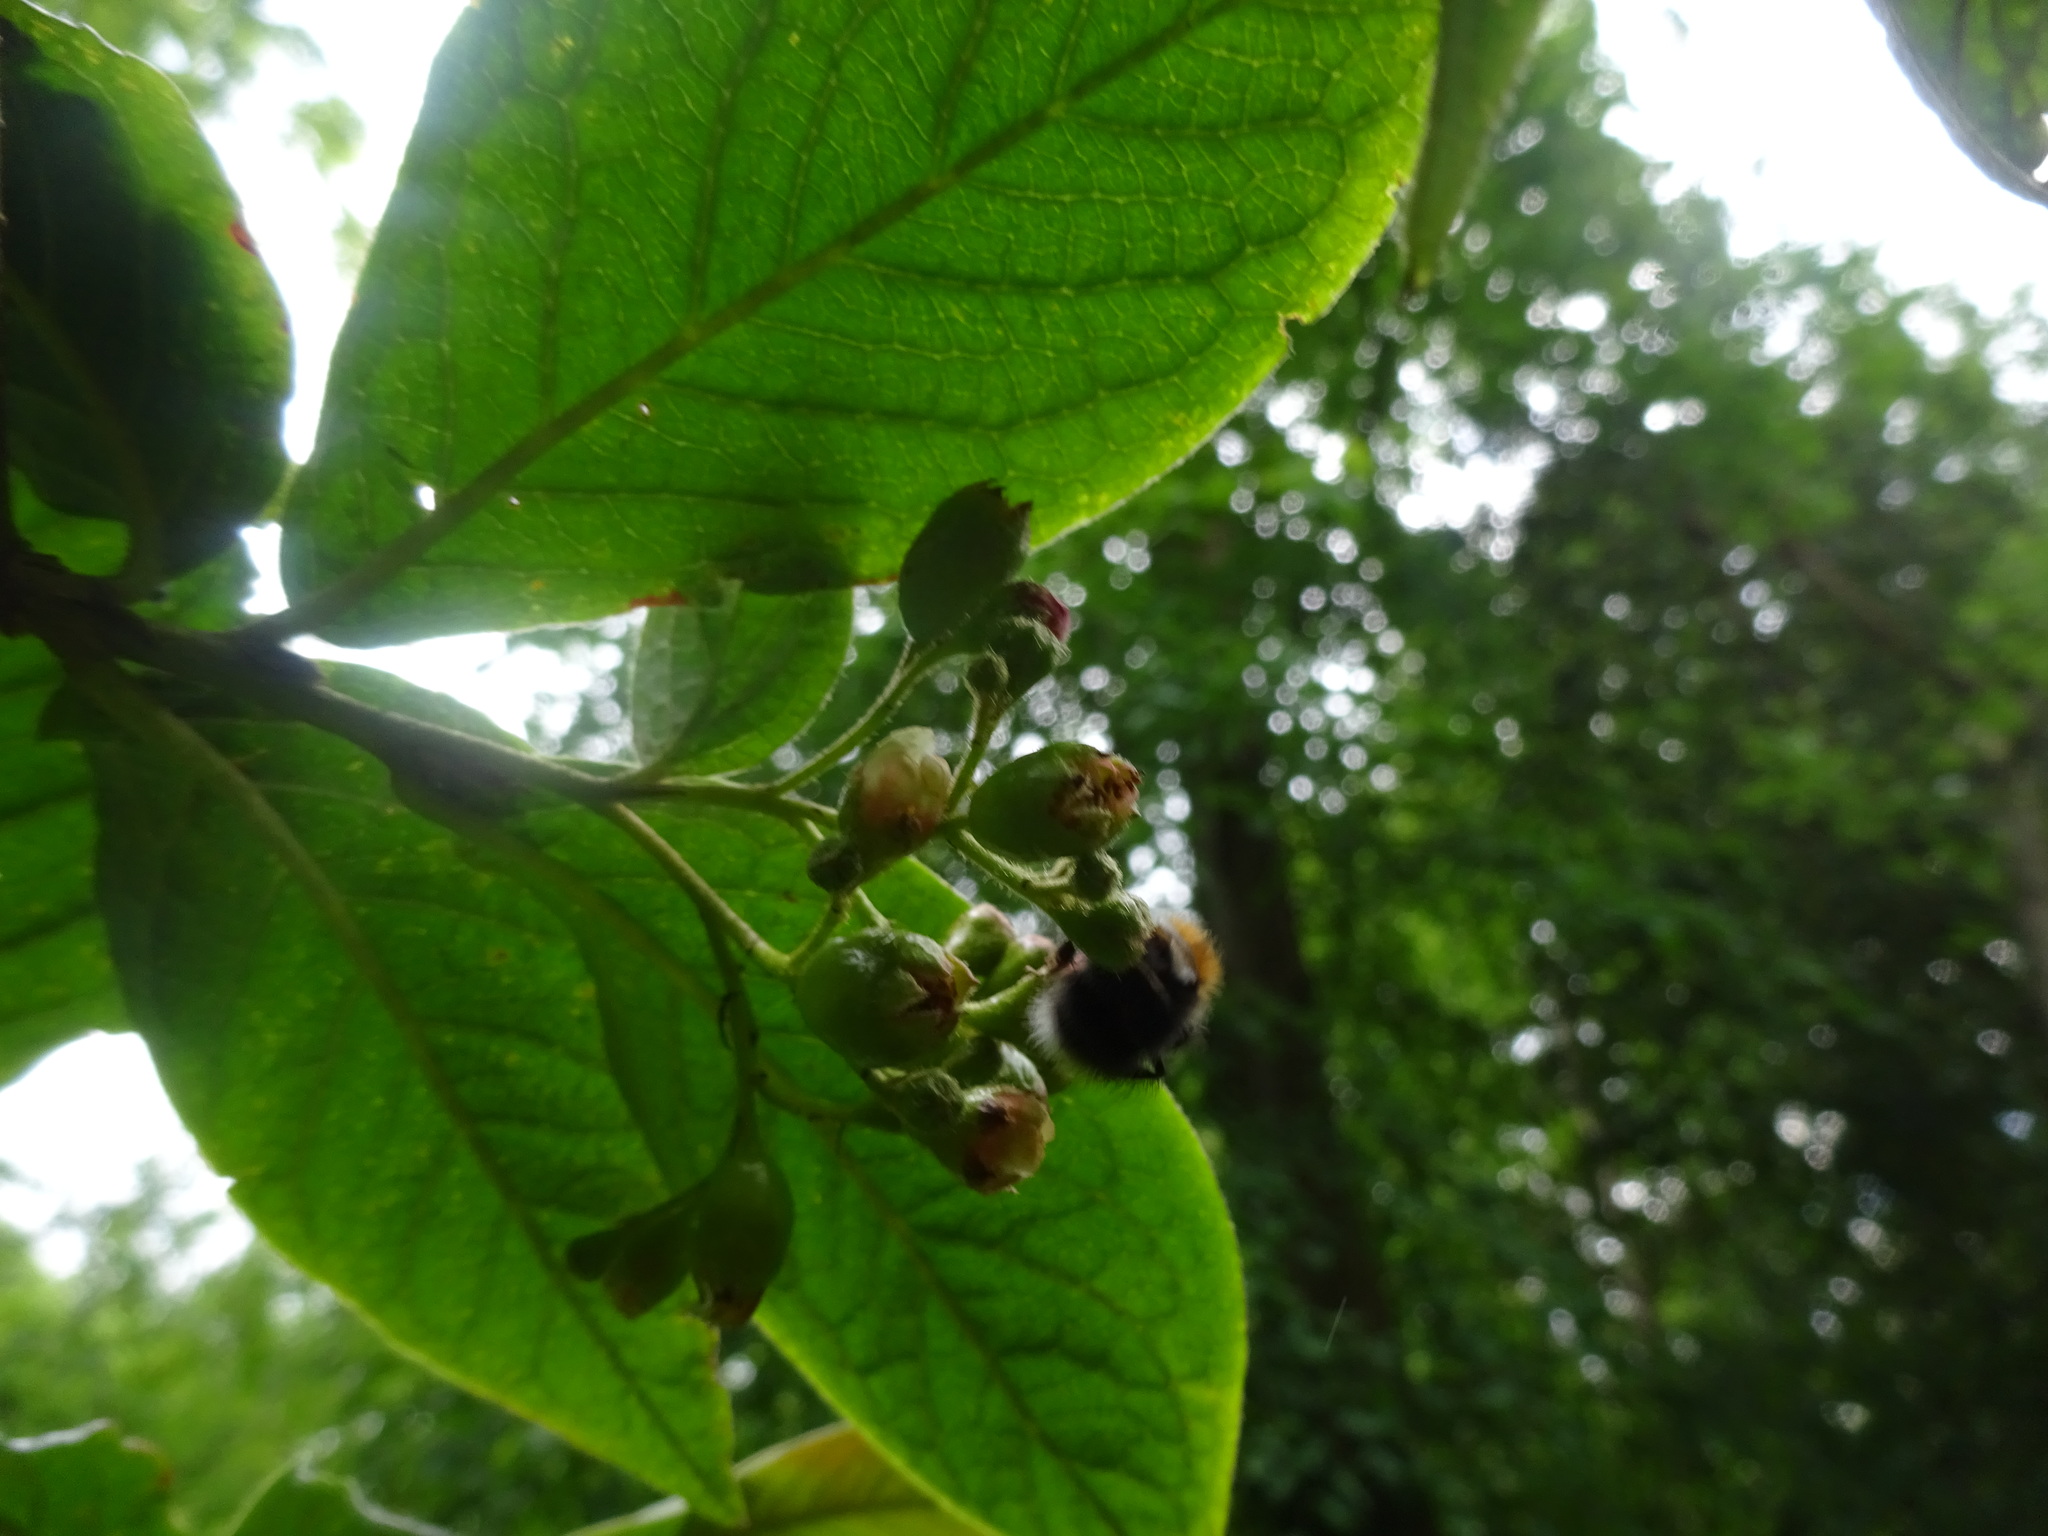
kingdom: Animalia
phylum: Arthropoda
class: Insecta
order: Hymenoptera
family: Apidae
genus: Bombus
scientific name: Bombus hypnorum
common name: New garden bumblebee
